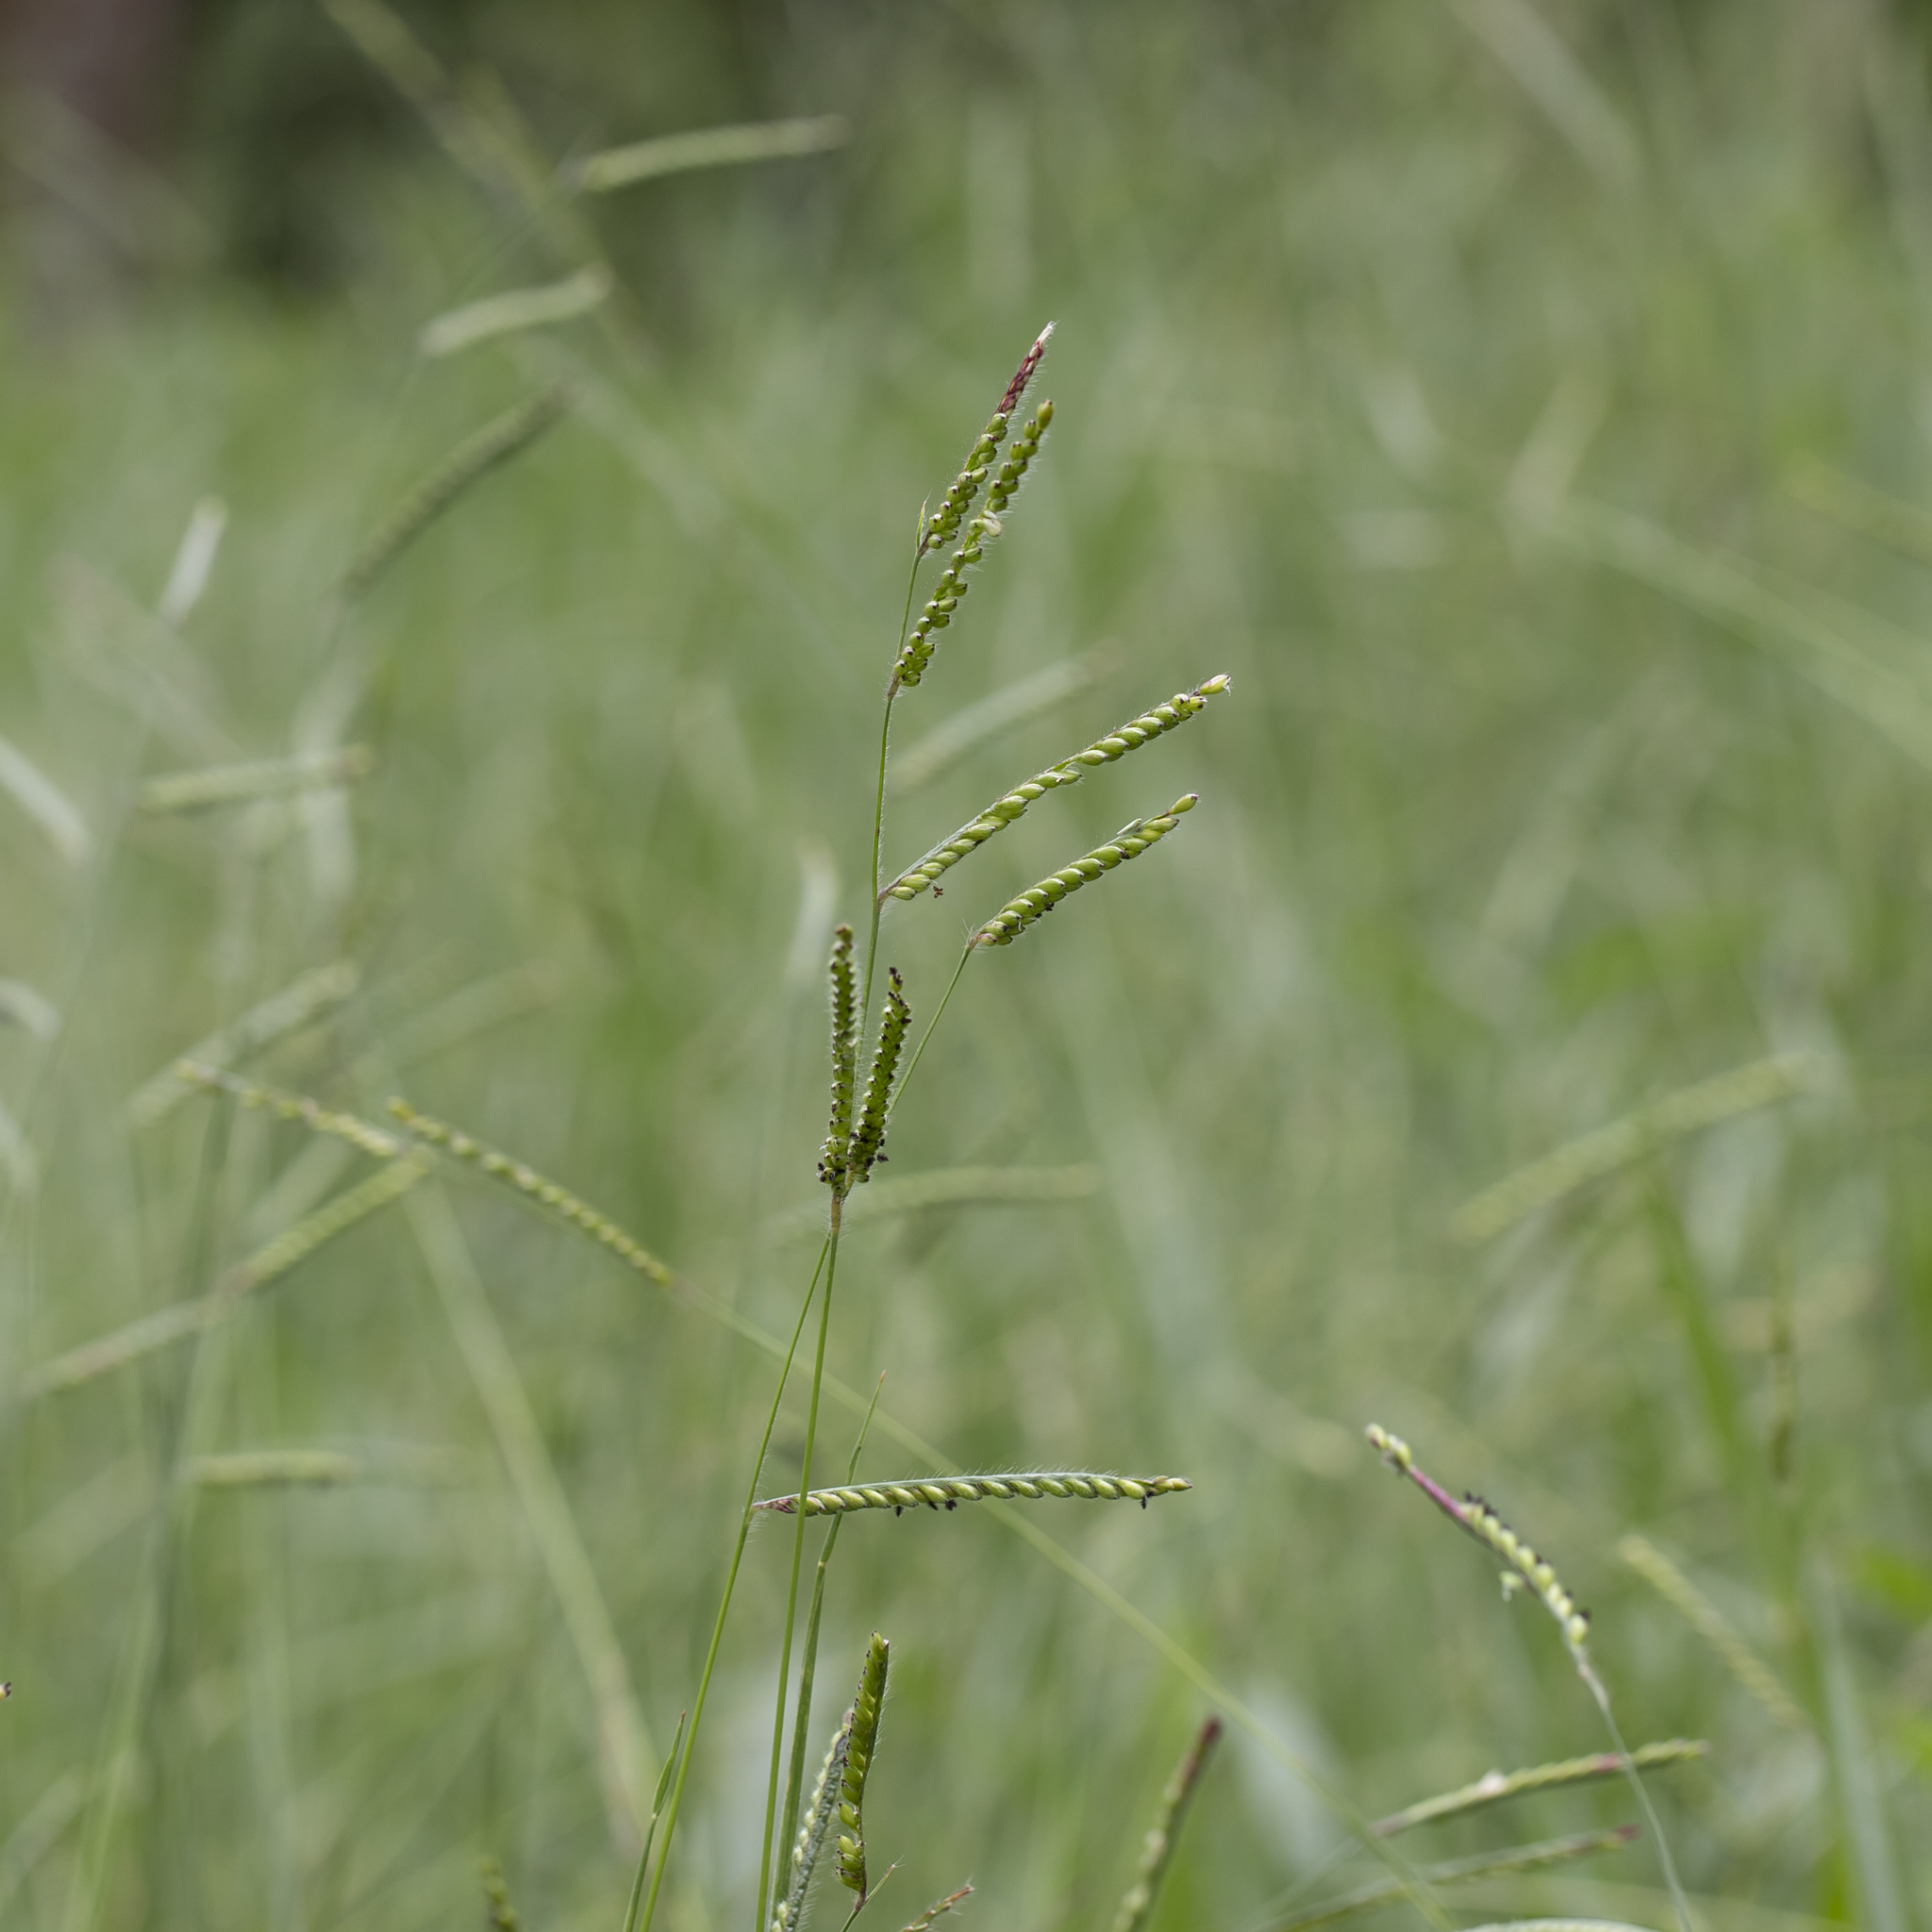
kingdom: Plantae
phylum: Tracheophyta
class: Liliopsida
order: Poales
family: Poaceae
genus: Urochloa
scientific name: Urochloa eminii
